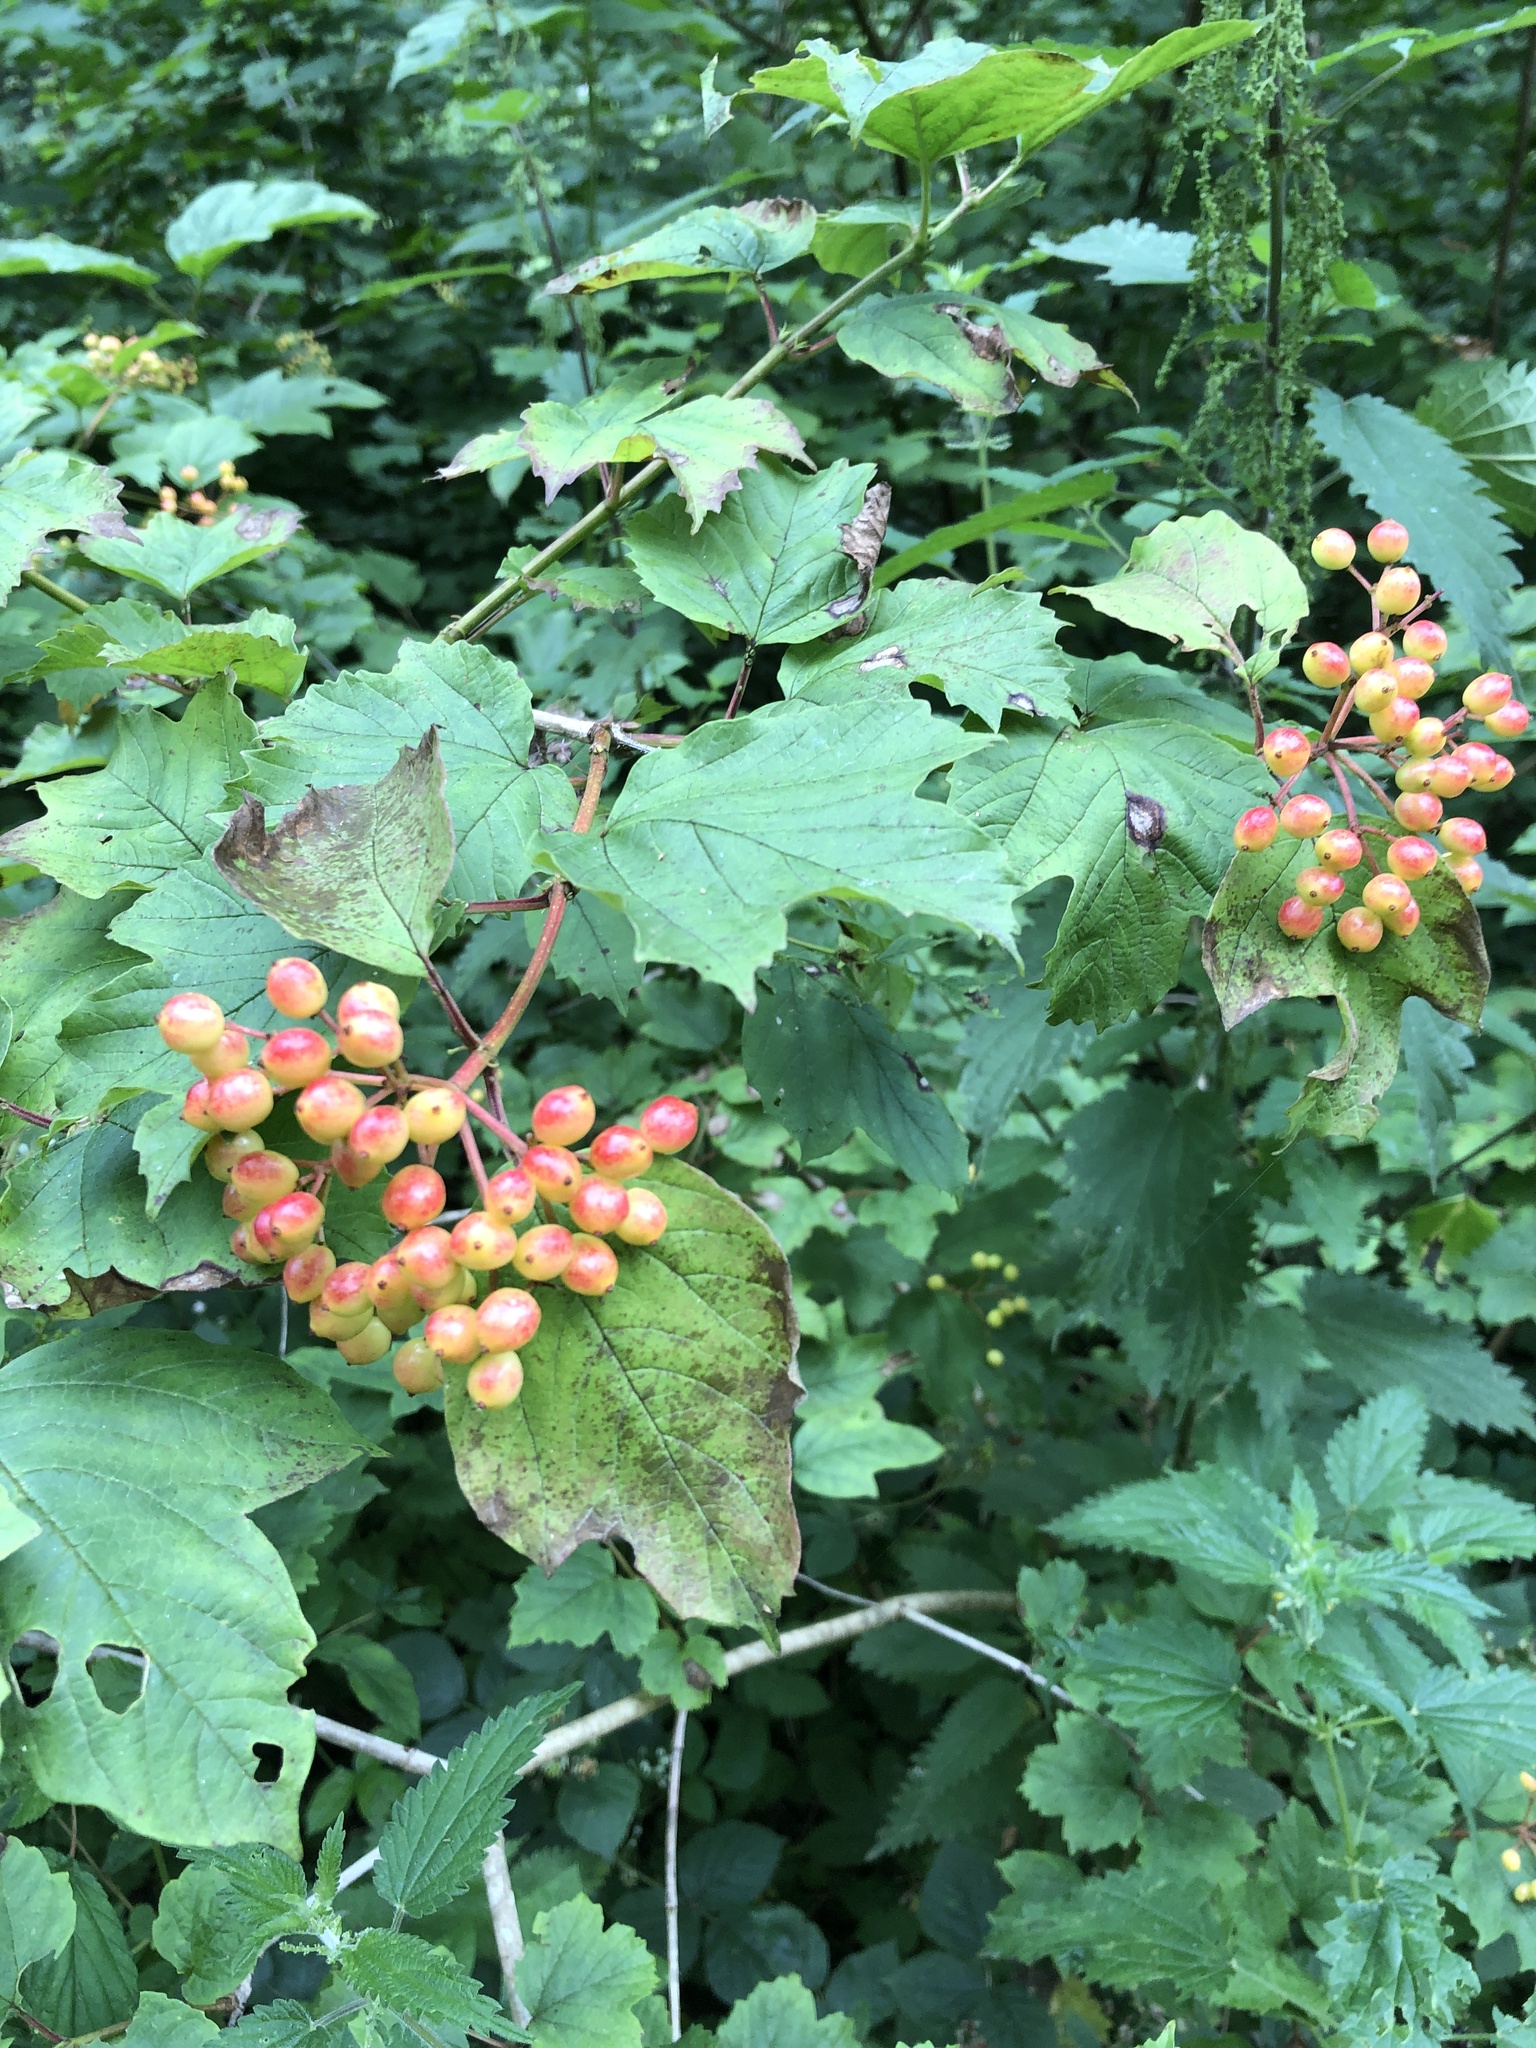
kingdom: Plantae
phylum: Tracheophyta
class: Magnoliopsida
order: Dipsacales
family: Viburnaceae
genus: Viburnum
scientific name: Viburnum opulus
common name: Guelder-rose
